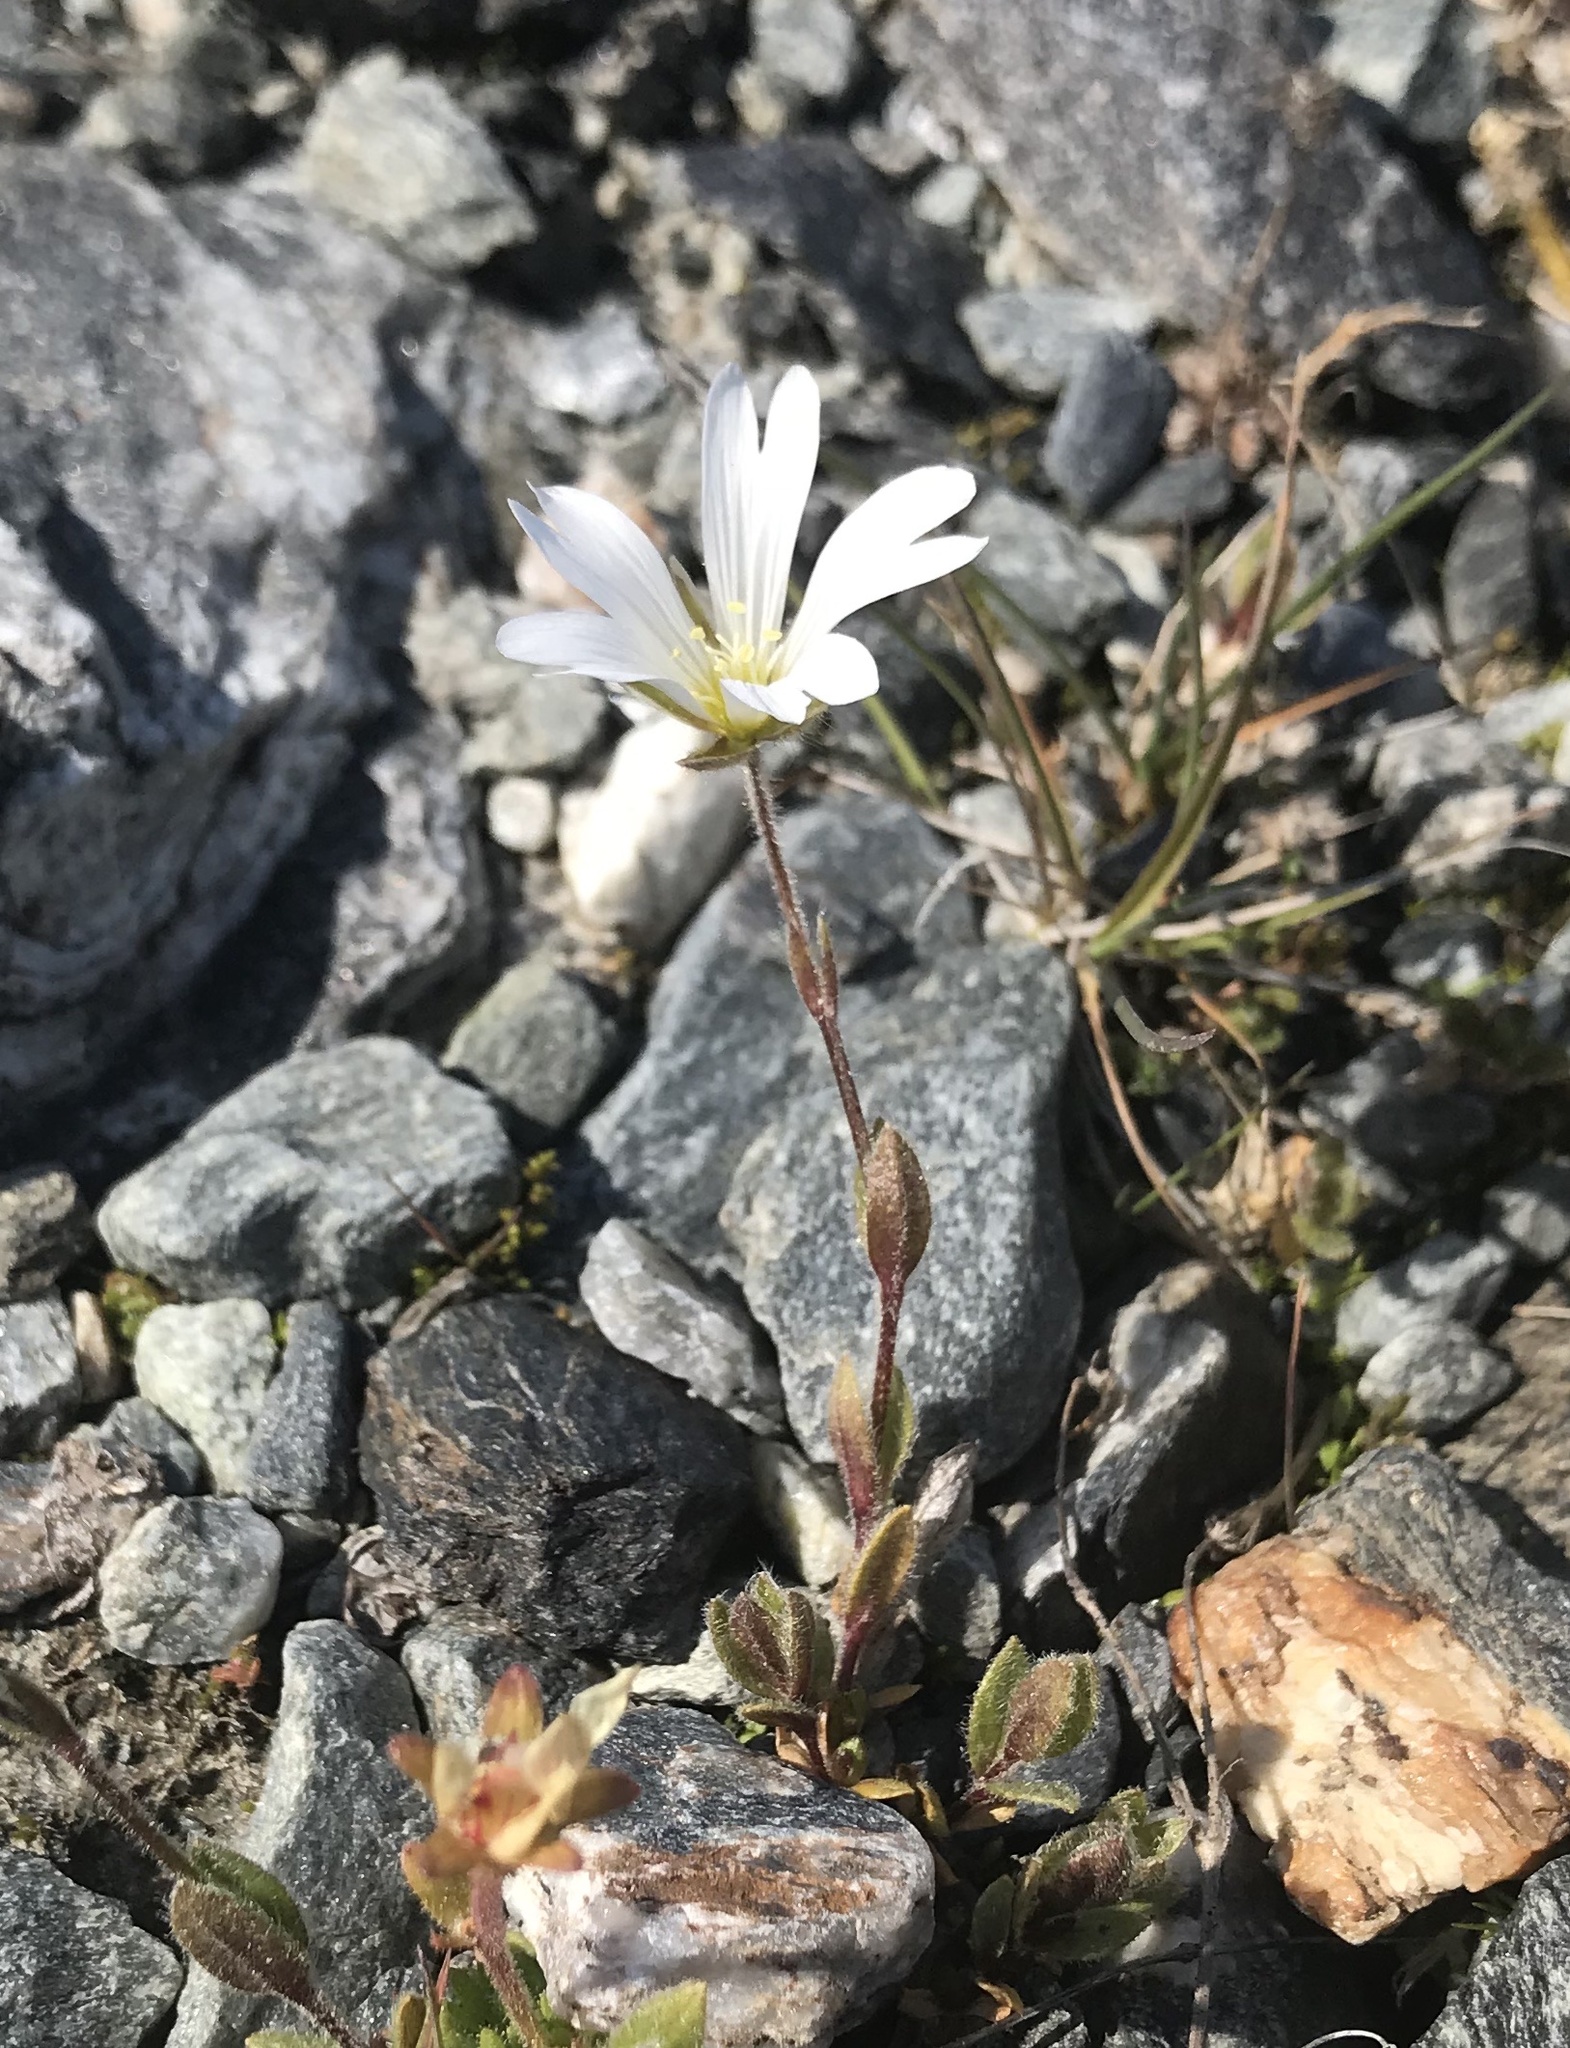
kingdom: Plantae
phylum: Tracheophyta
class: Magnoliopsida
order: Caryophyllales
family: Caryophyllaceae
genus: Cerastium
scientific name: Cerastium alpinum
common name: Alpine mouse-ear
